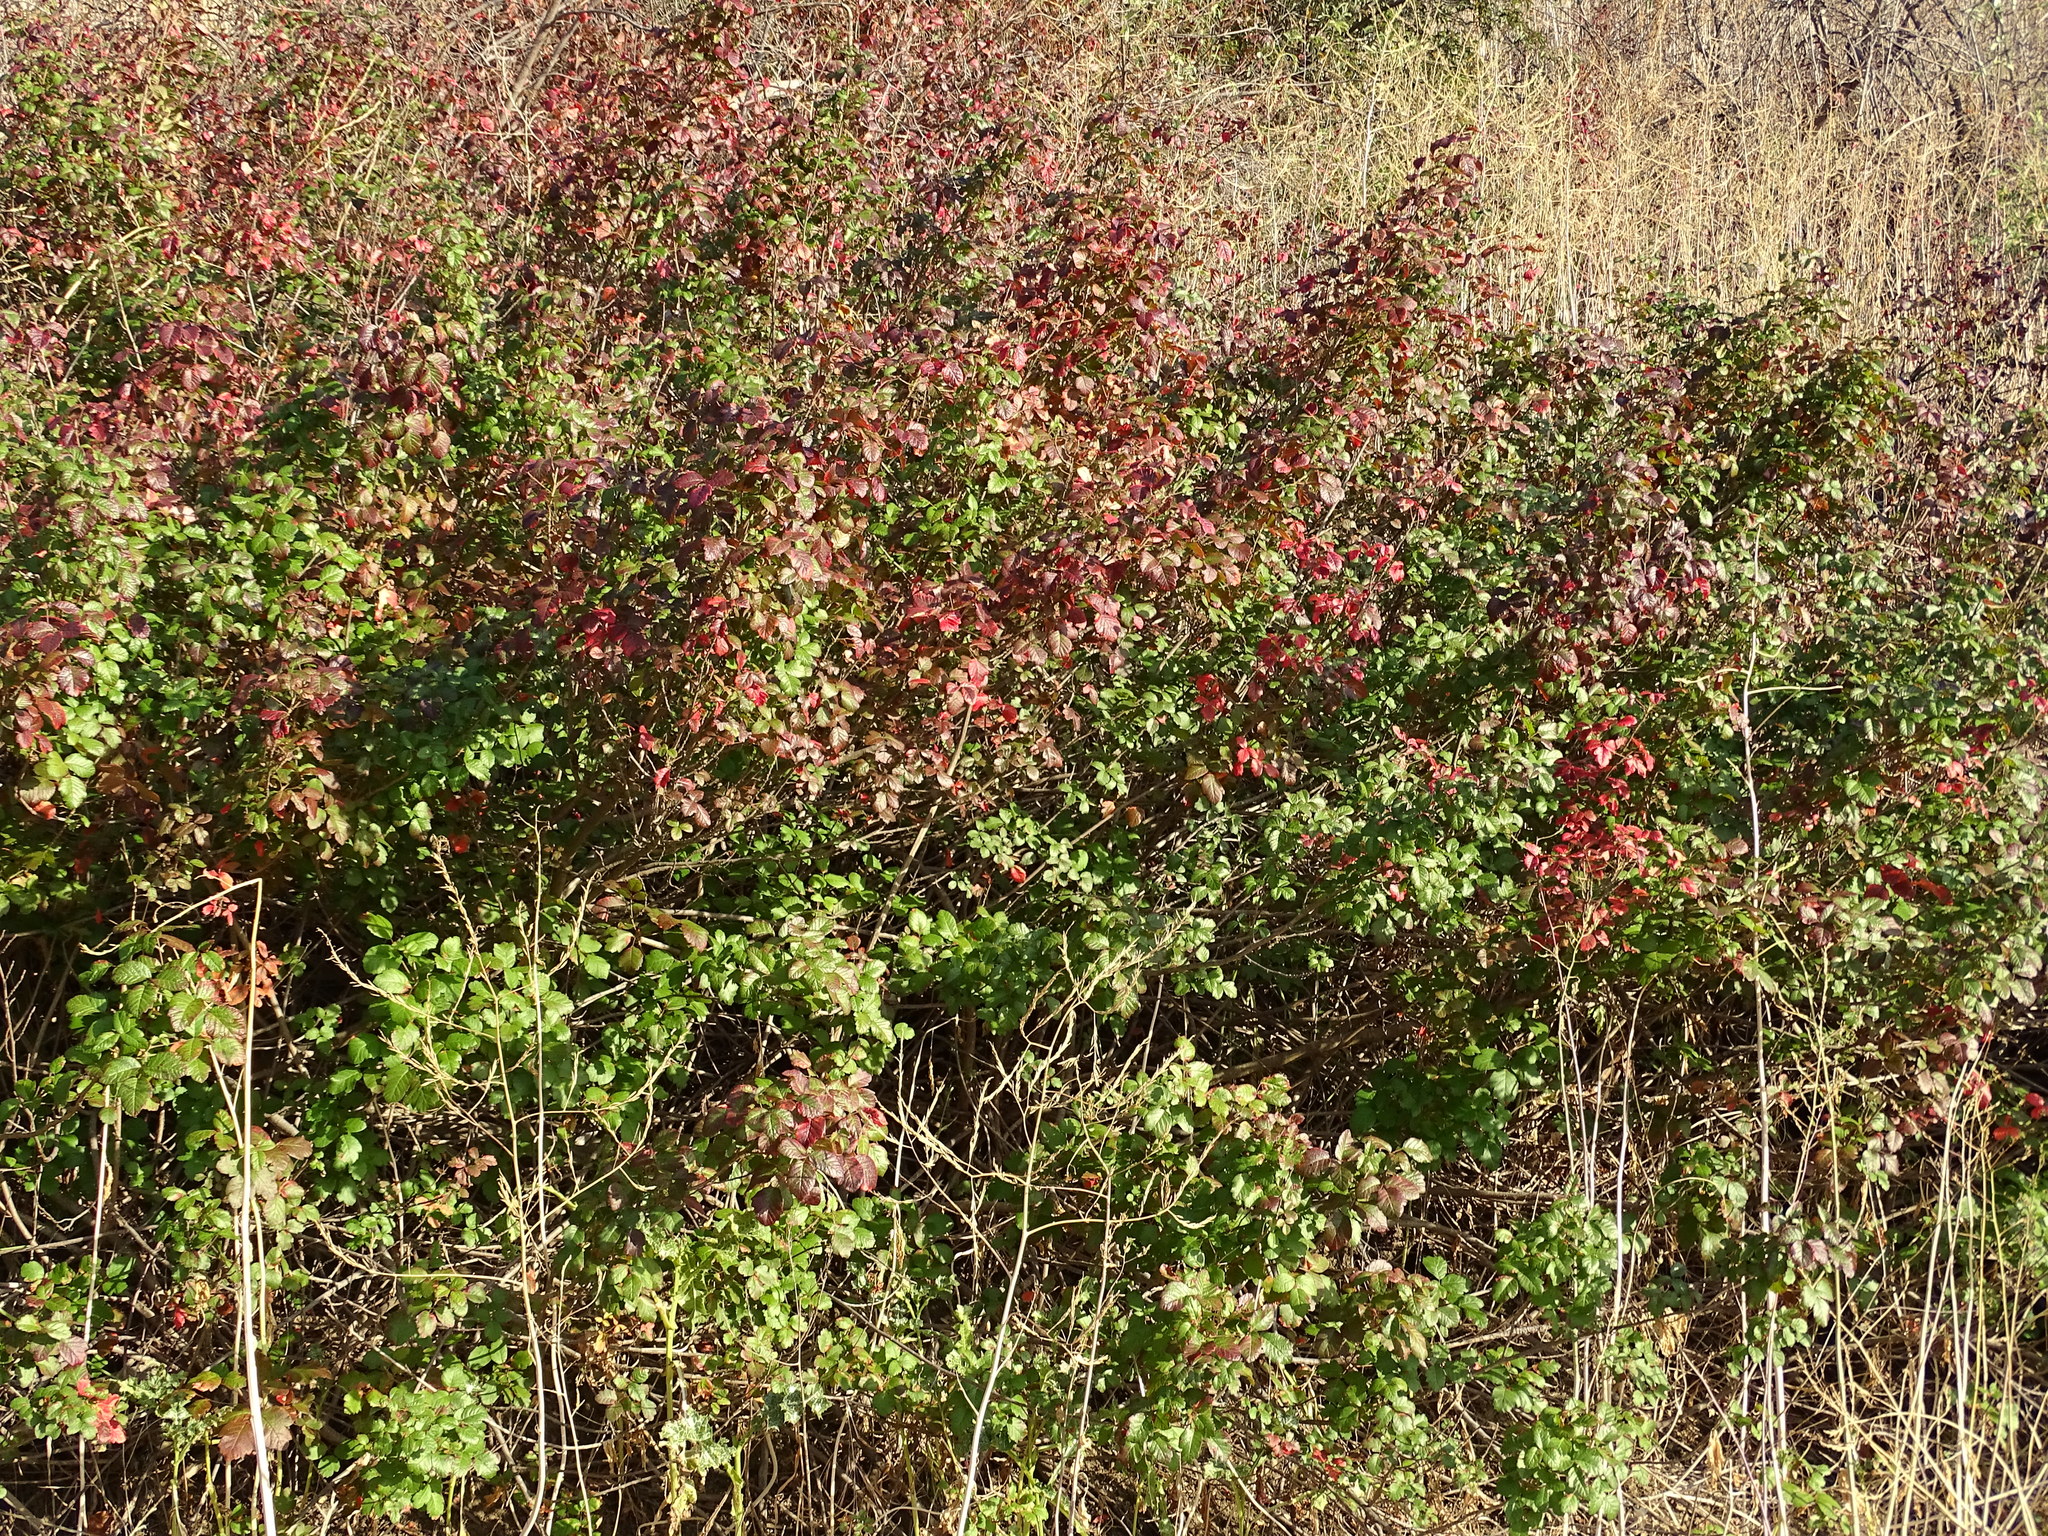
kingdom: Plantae
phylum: Tracheophyta
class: Magnoliopsida
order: Sapindales
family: Anacardiaceae
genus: Toxicodendron
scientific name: Toxicodendron diversilobum
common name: Pacific poison-oak
